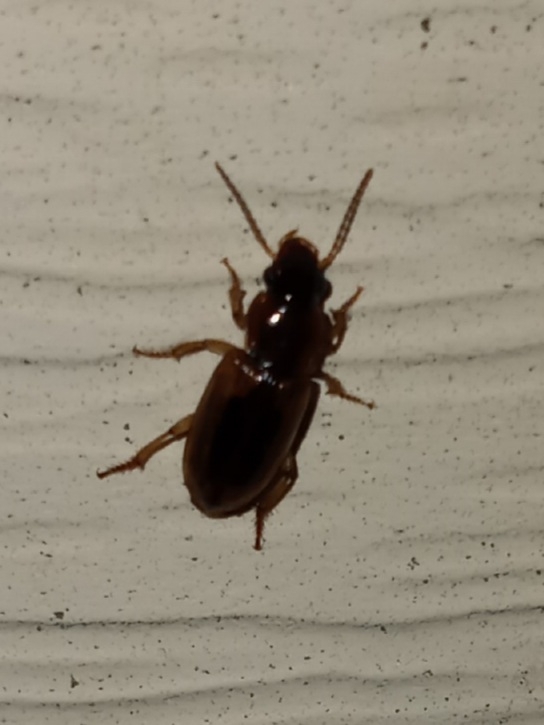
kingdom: Animalia
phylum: Arthropoda
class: Insecta
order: Coleoptera
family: Carabidae
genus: Stenolophus
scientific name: Stenolophus lecontei
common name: Leconte's seedcorn beetle
